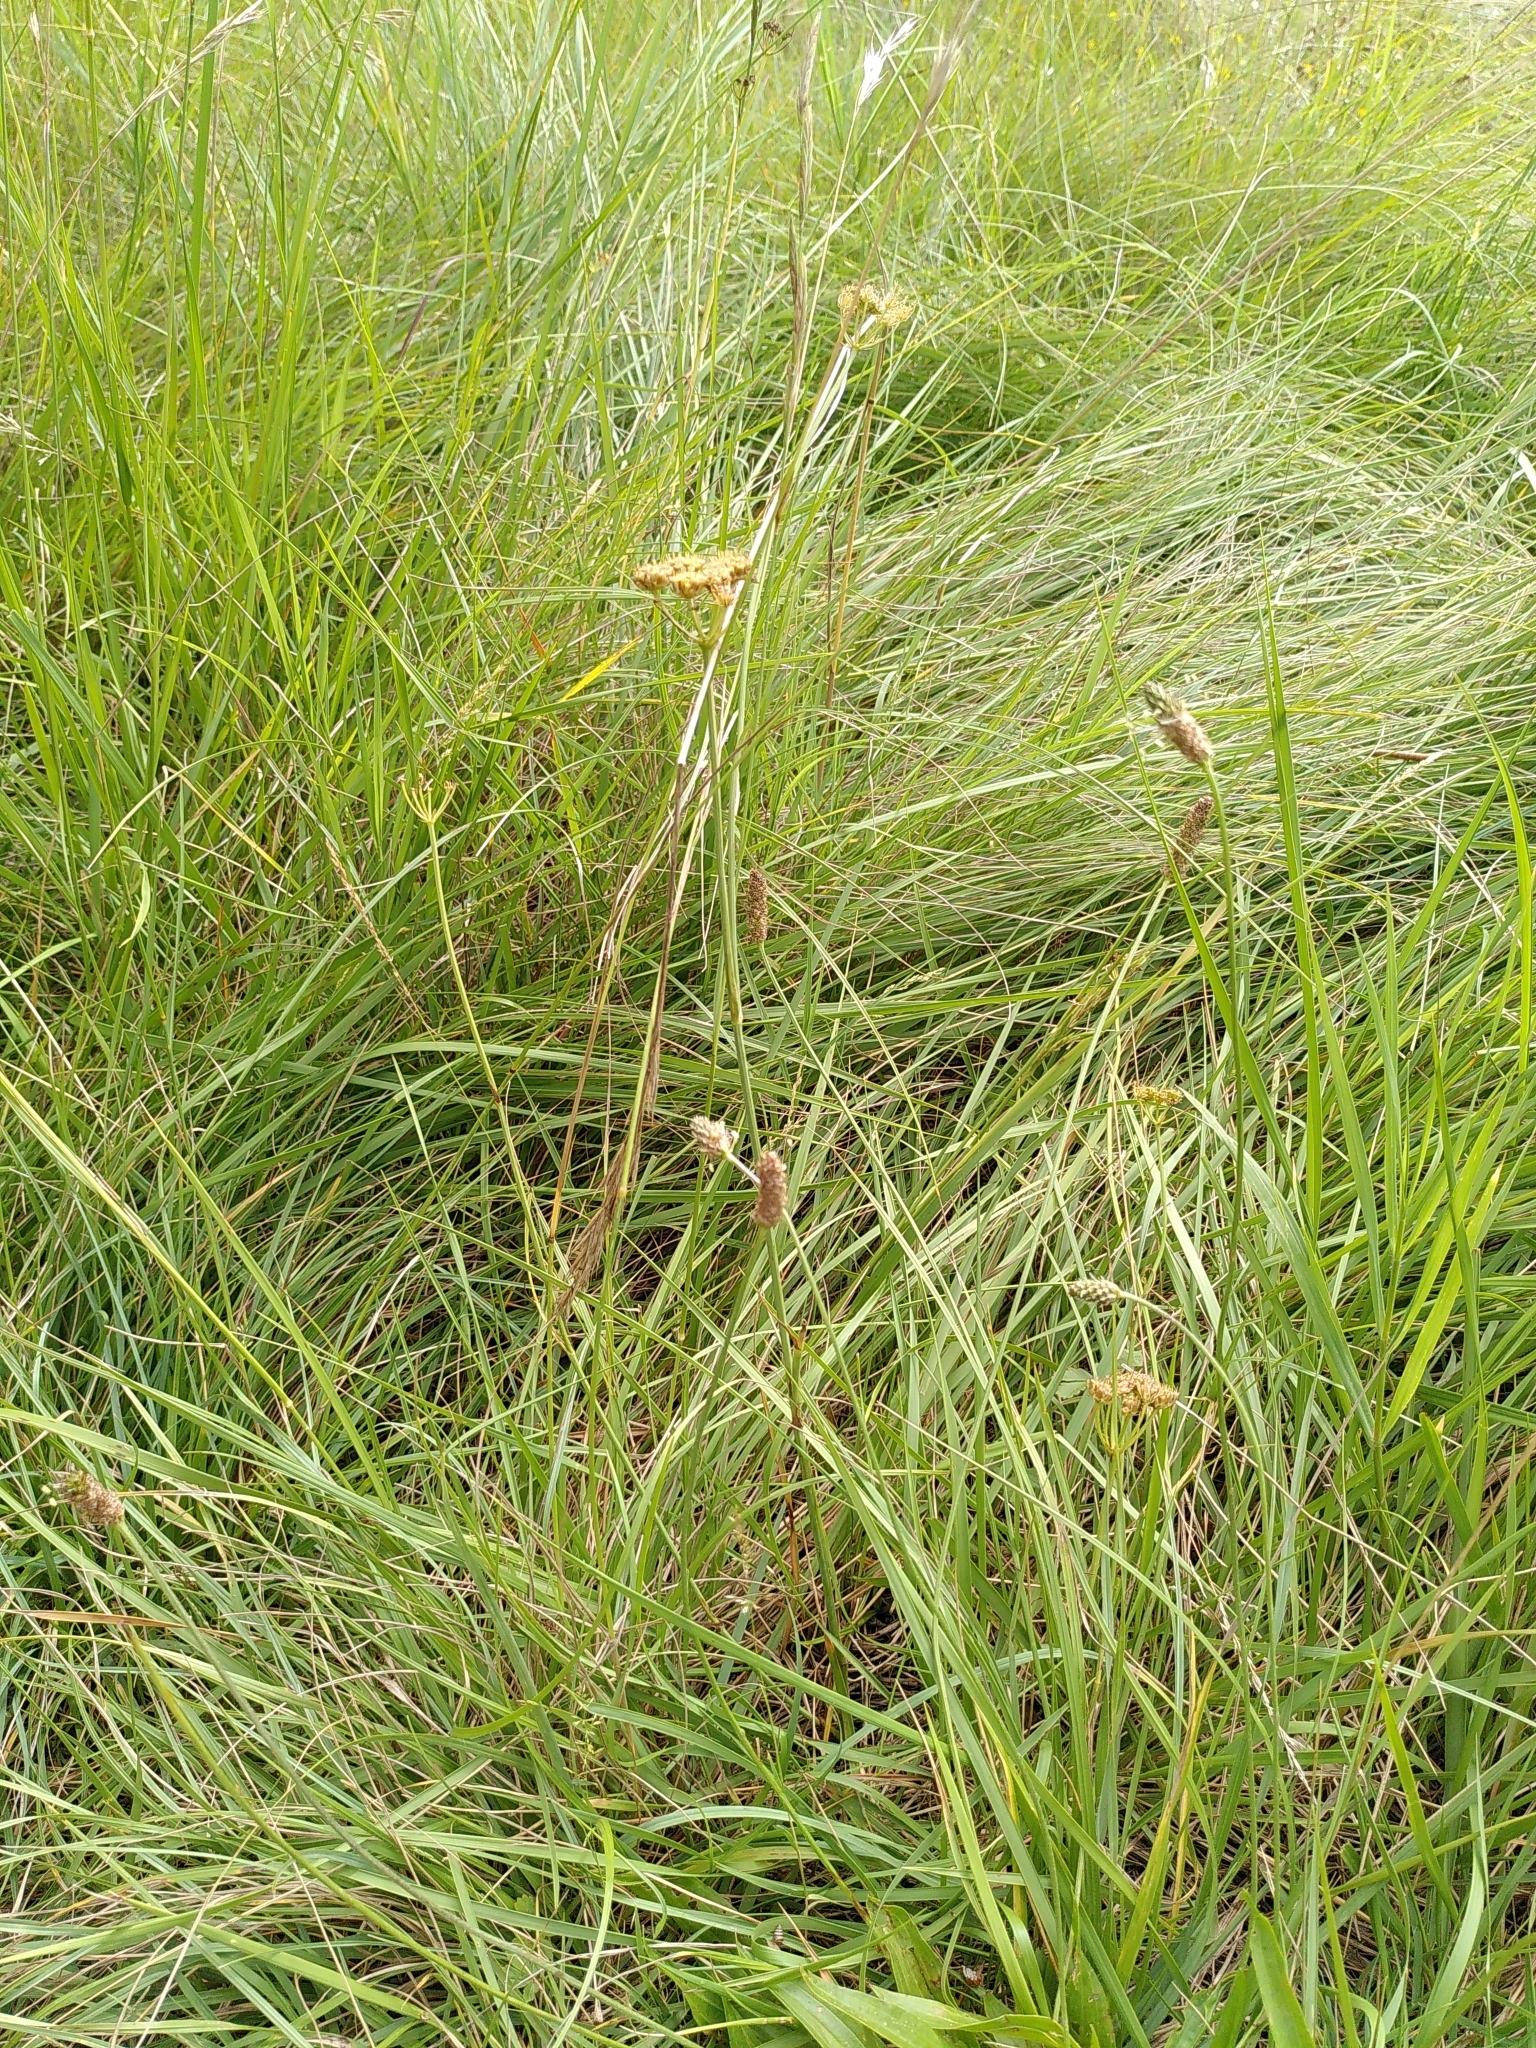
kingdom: Plantae
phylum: Tracheophyta
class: Magnoliopsida
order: Apiales
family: Apiaceae
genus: Oenanthe
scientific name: Oenanthe pimpinelloides
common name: Corky-fruited water-dropwort
